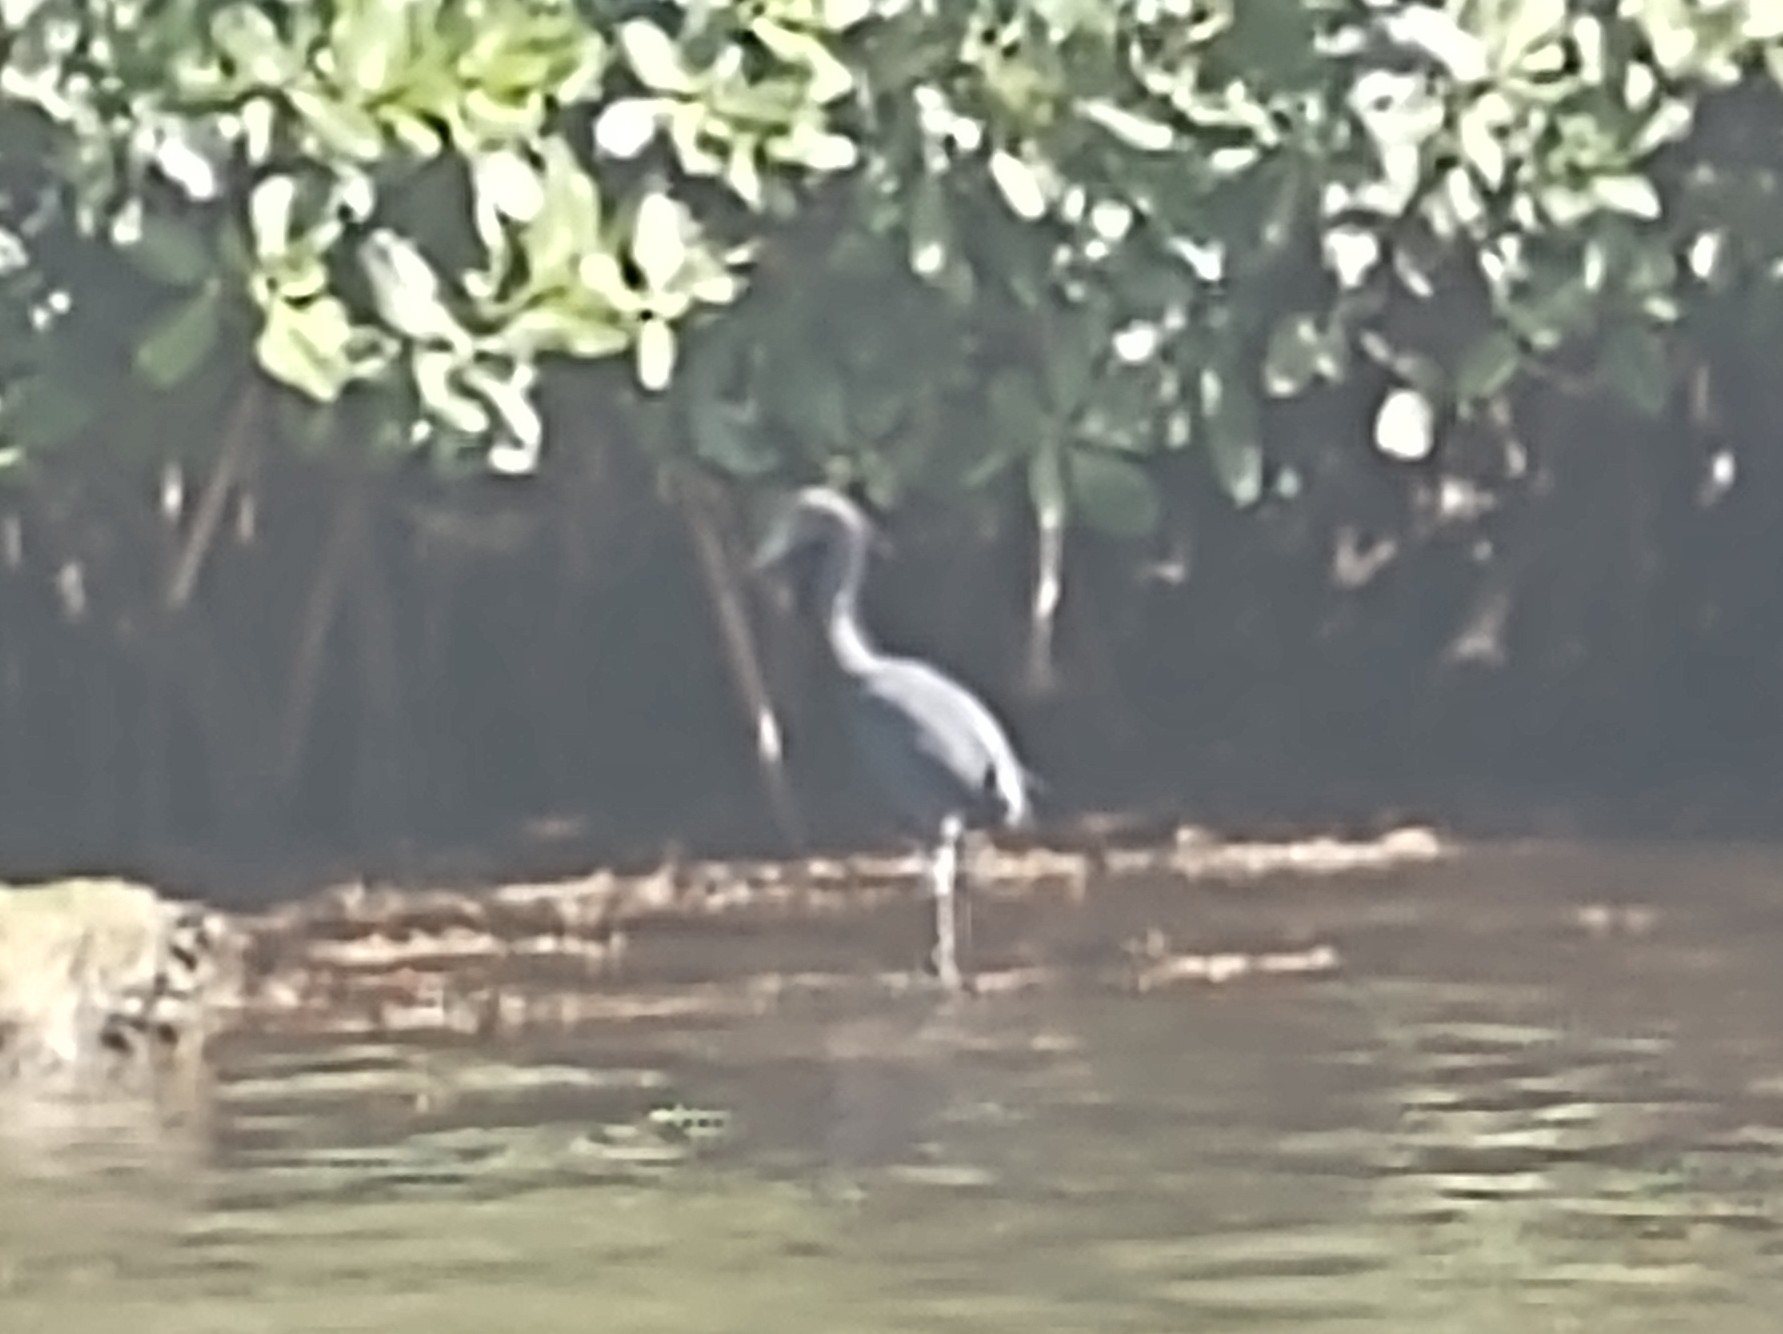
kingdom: Animalia
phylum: Chordata
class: Aves
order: Pelecaniformes
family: Ardeidae
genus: Egretta
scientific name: Egretta caerulea
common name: Little blue heron
